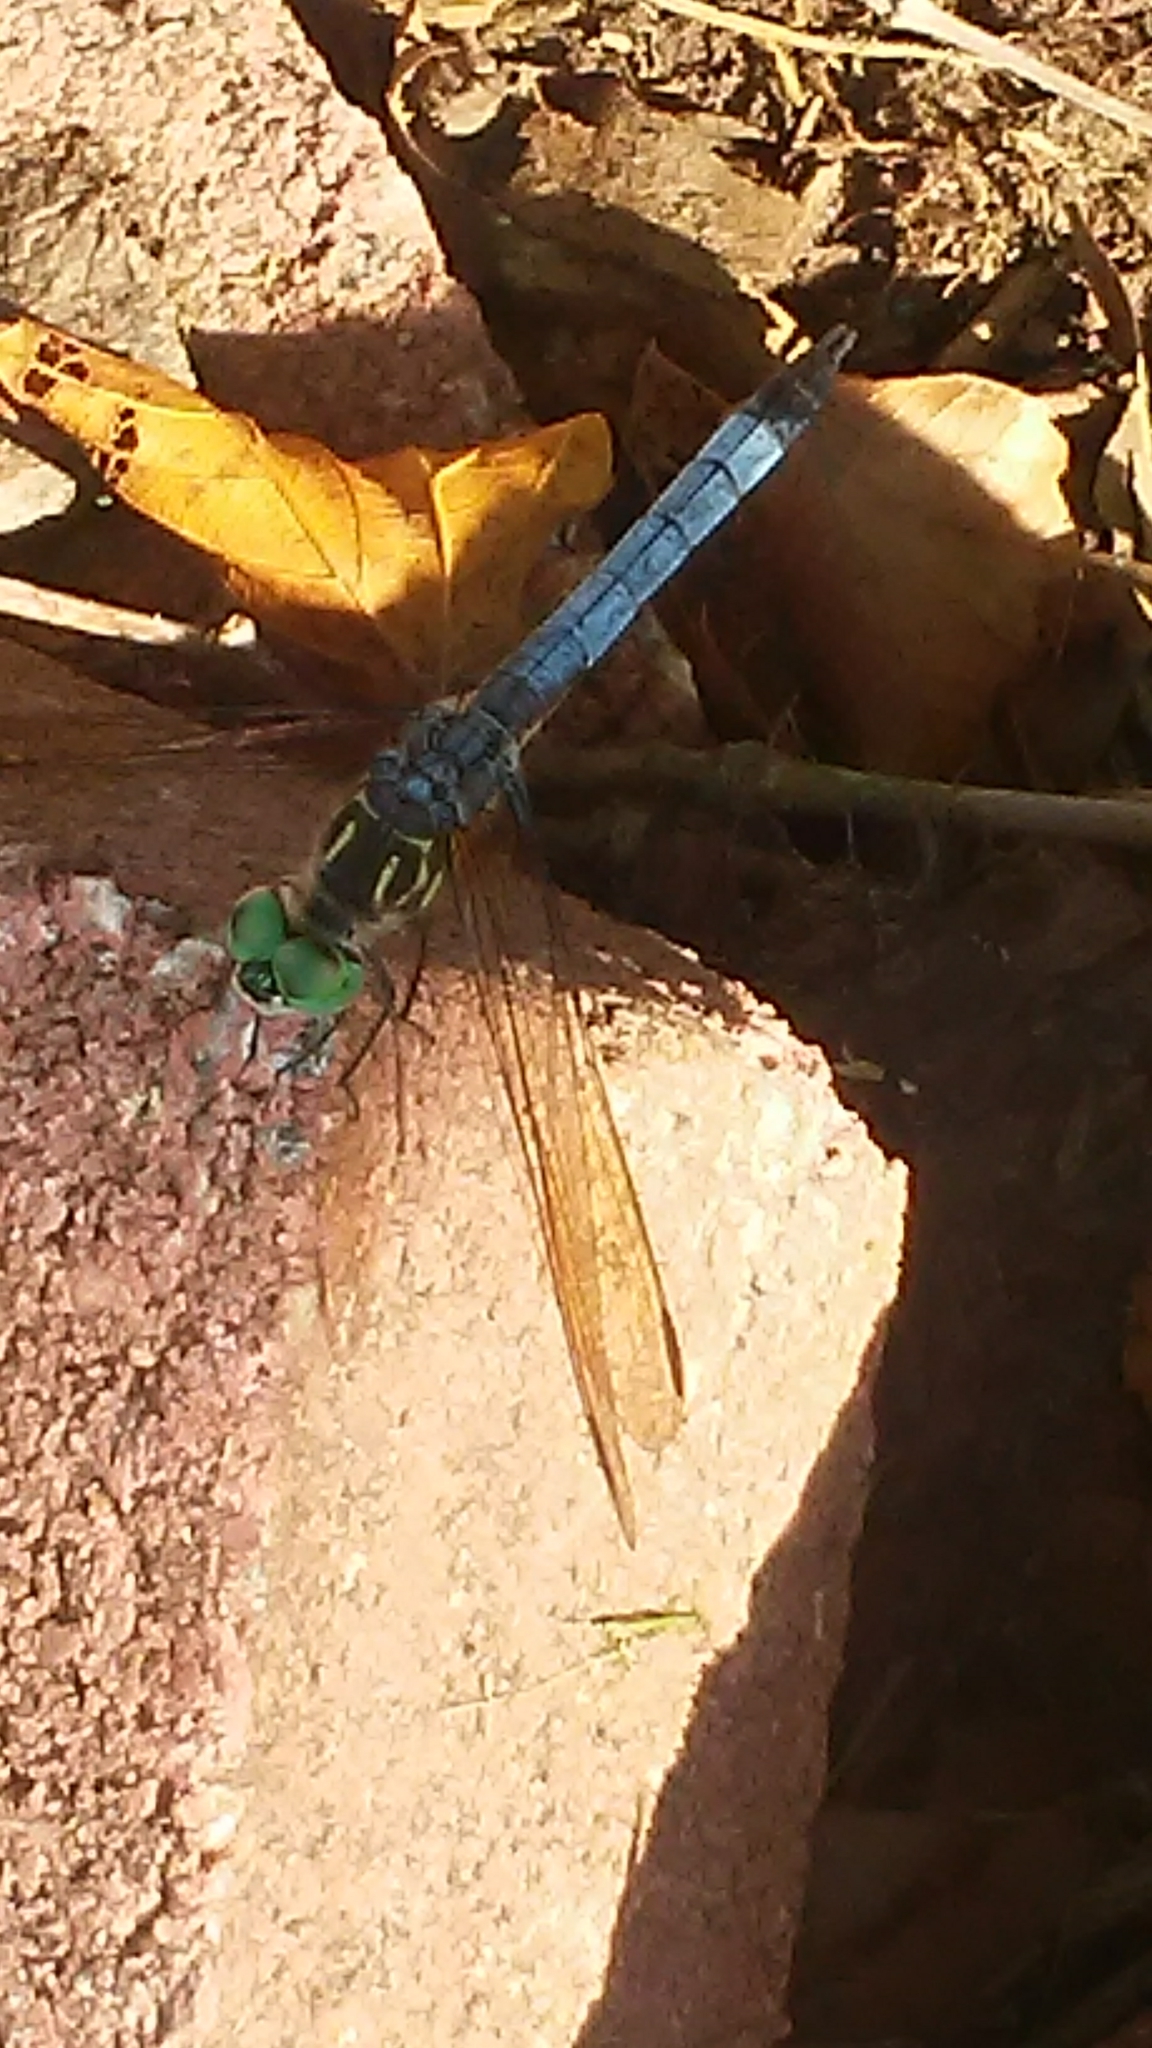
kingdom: Animalia
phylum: Arthropoda
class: Insecta
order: Odonata
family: Libellulidae
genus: Pachydiplax
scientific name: Pachydiplax longipennis
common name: Blue dasher
